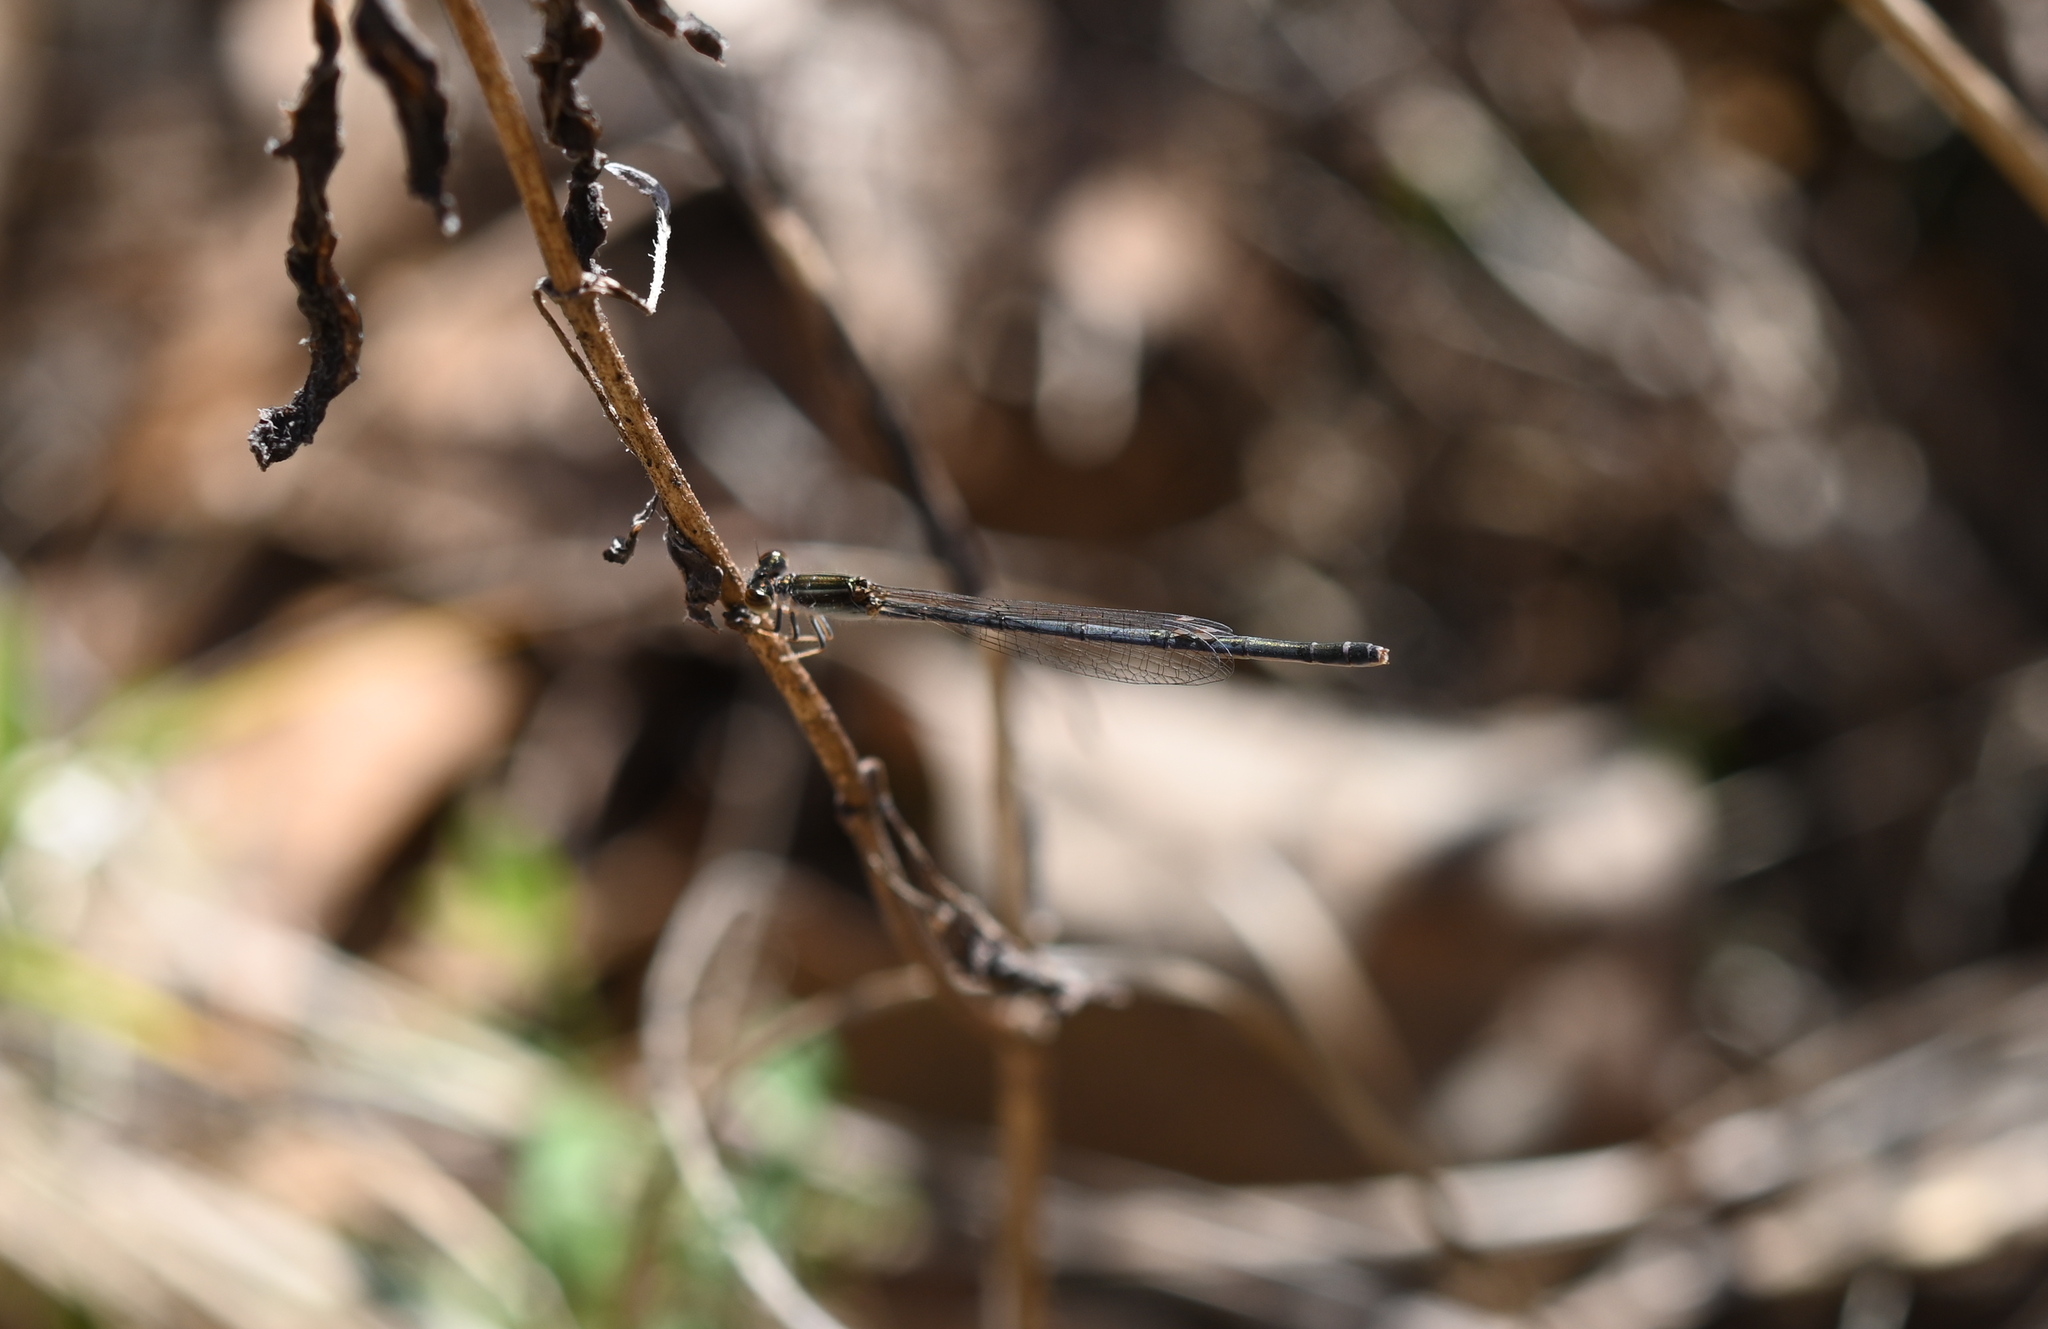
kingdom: Animalia
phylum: Arthropoda
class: Insecta
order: Odonata
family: Coenagrionidae
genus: Ischnura
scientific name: Ischnura posita
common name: Fragile forktail
